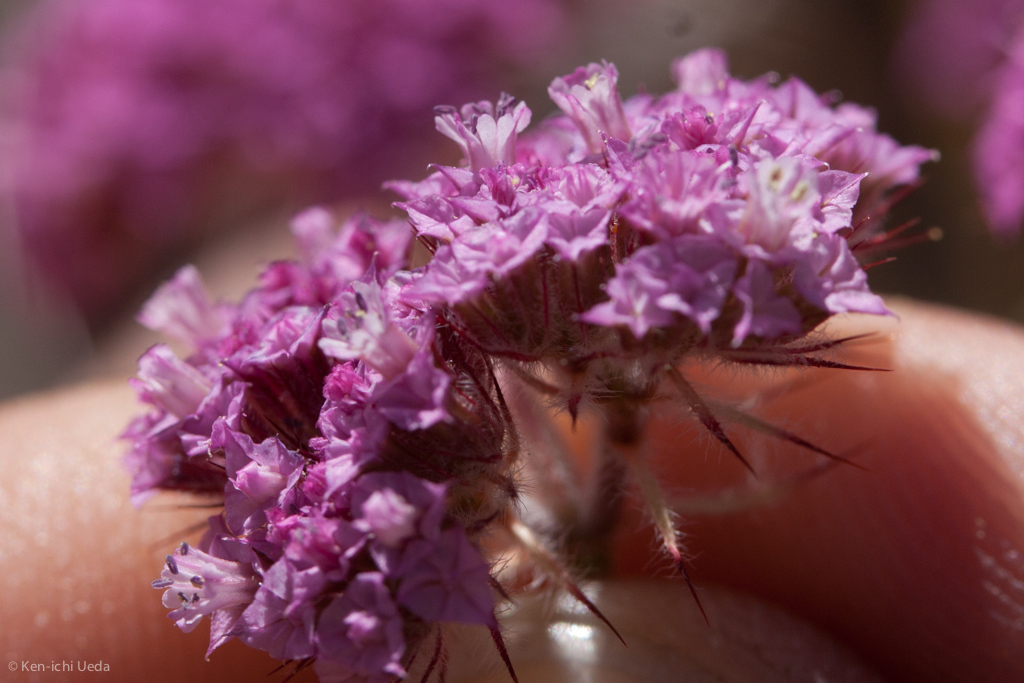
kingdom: Plantae
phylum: Tracheophyta
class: Magnoliopsida
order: Caryophyllales
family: Polygonaceae
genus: Chorizanthe
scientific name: Chorizanthe douglasii
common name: Douglas's spineflower
